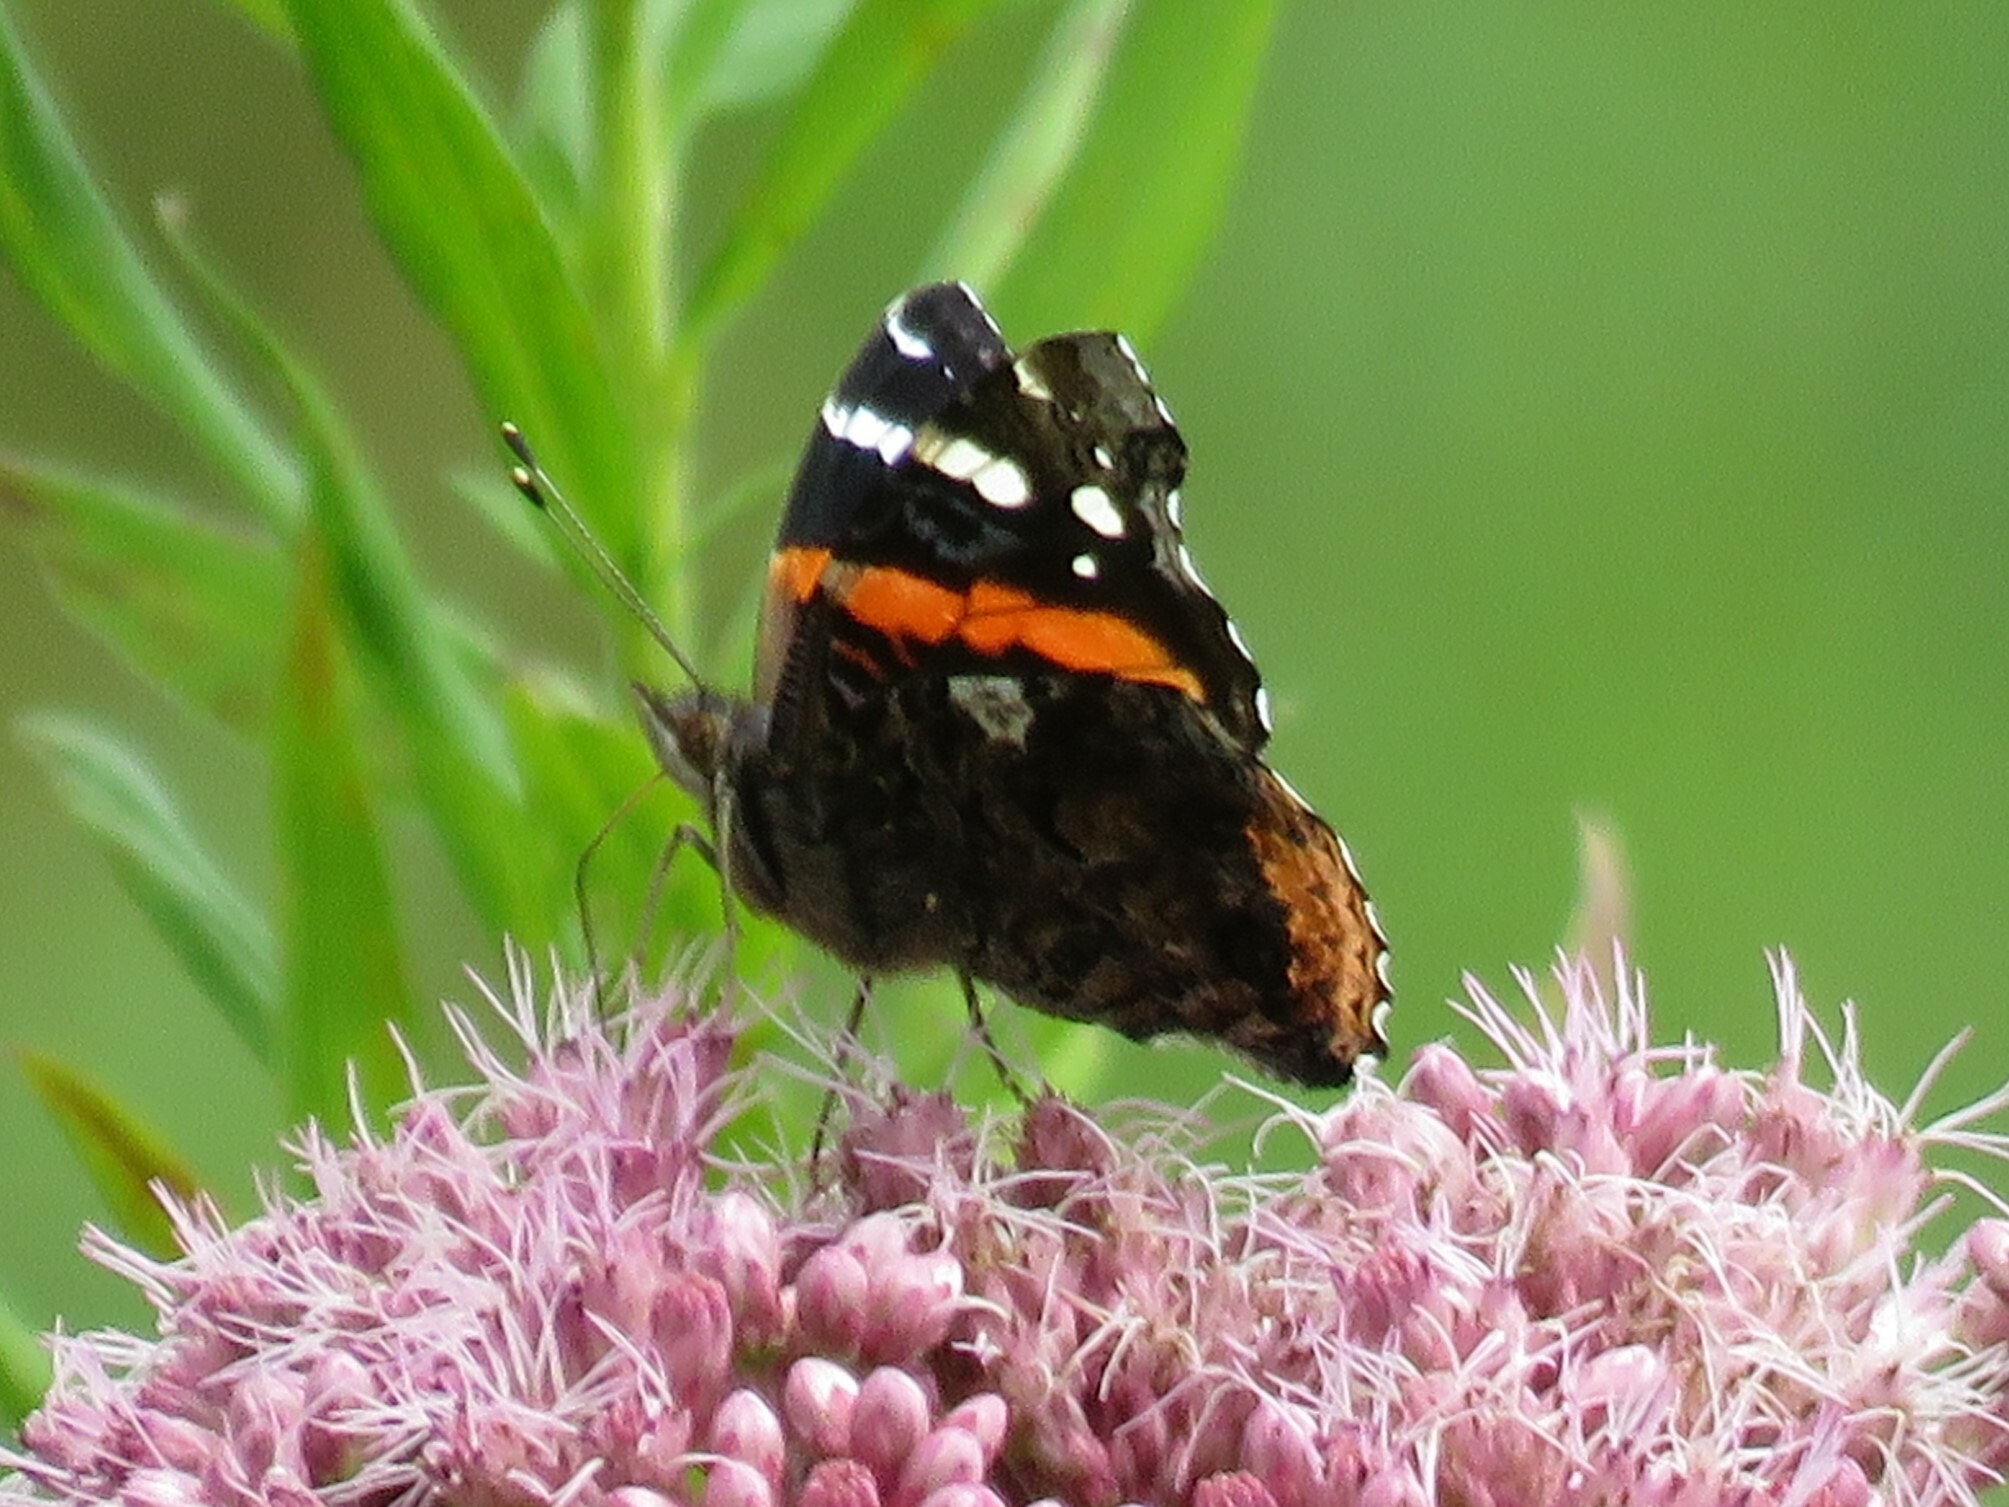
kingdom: Animalia
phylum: Arthropoda
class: Insecta
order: Lepidoptera
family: Nymphalidae
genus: Vanessa
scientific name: Vanessa atalanta
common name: Red admiral
